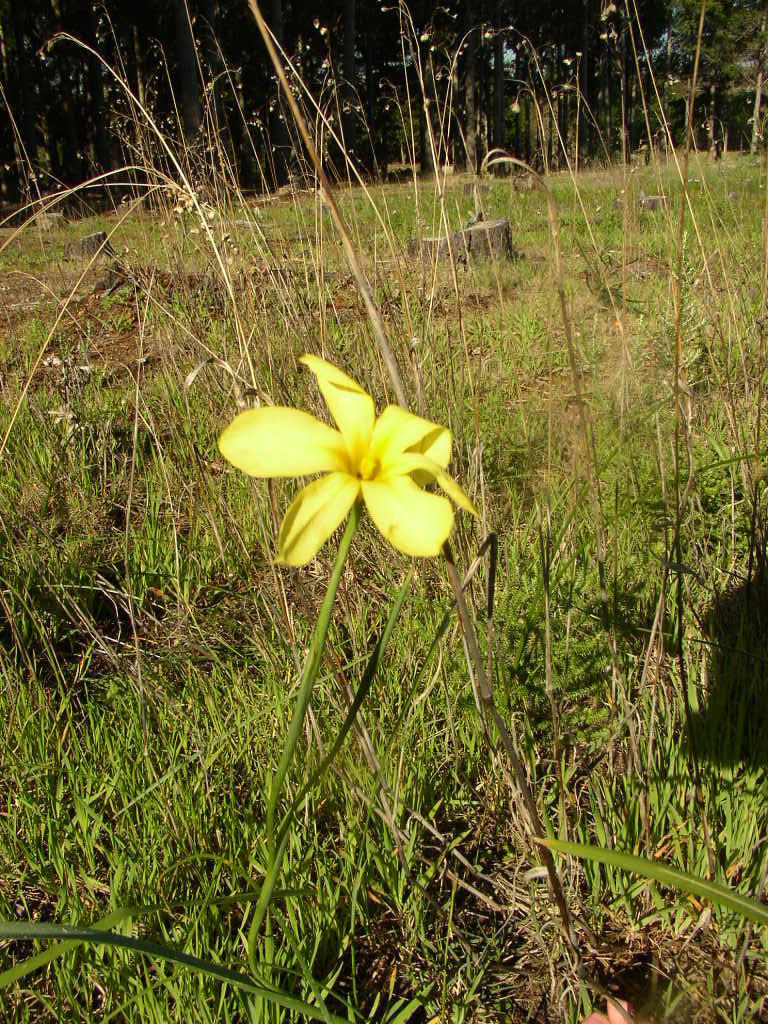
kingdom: Plantae
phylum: Tracheophyta
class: Liliopsida
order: Asparagales
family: Iridaceae
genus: Moraea
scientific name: Moraea collina
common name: Cape-tulip
